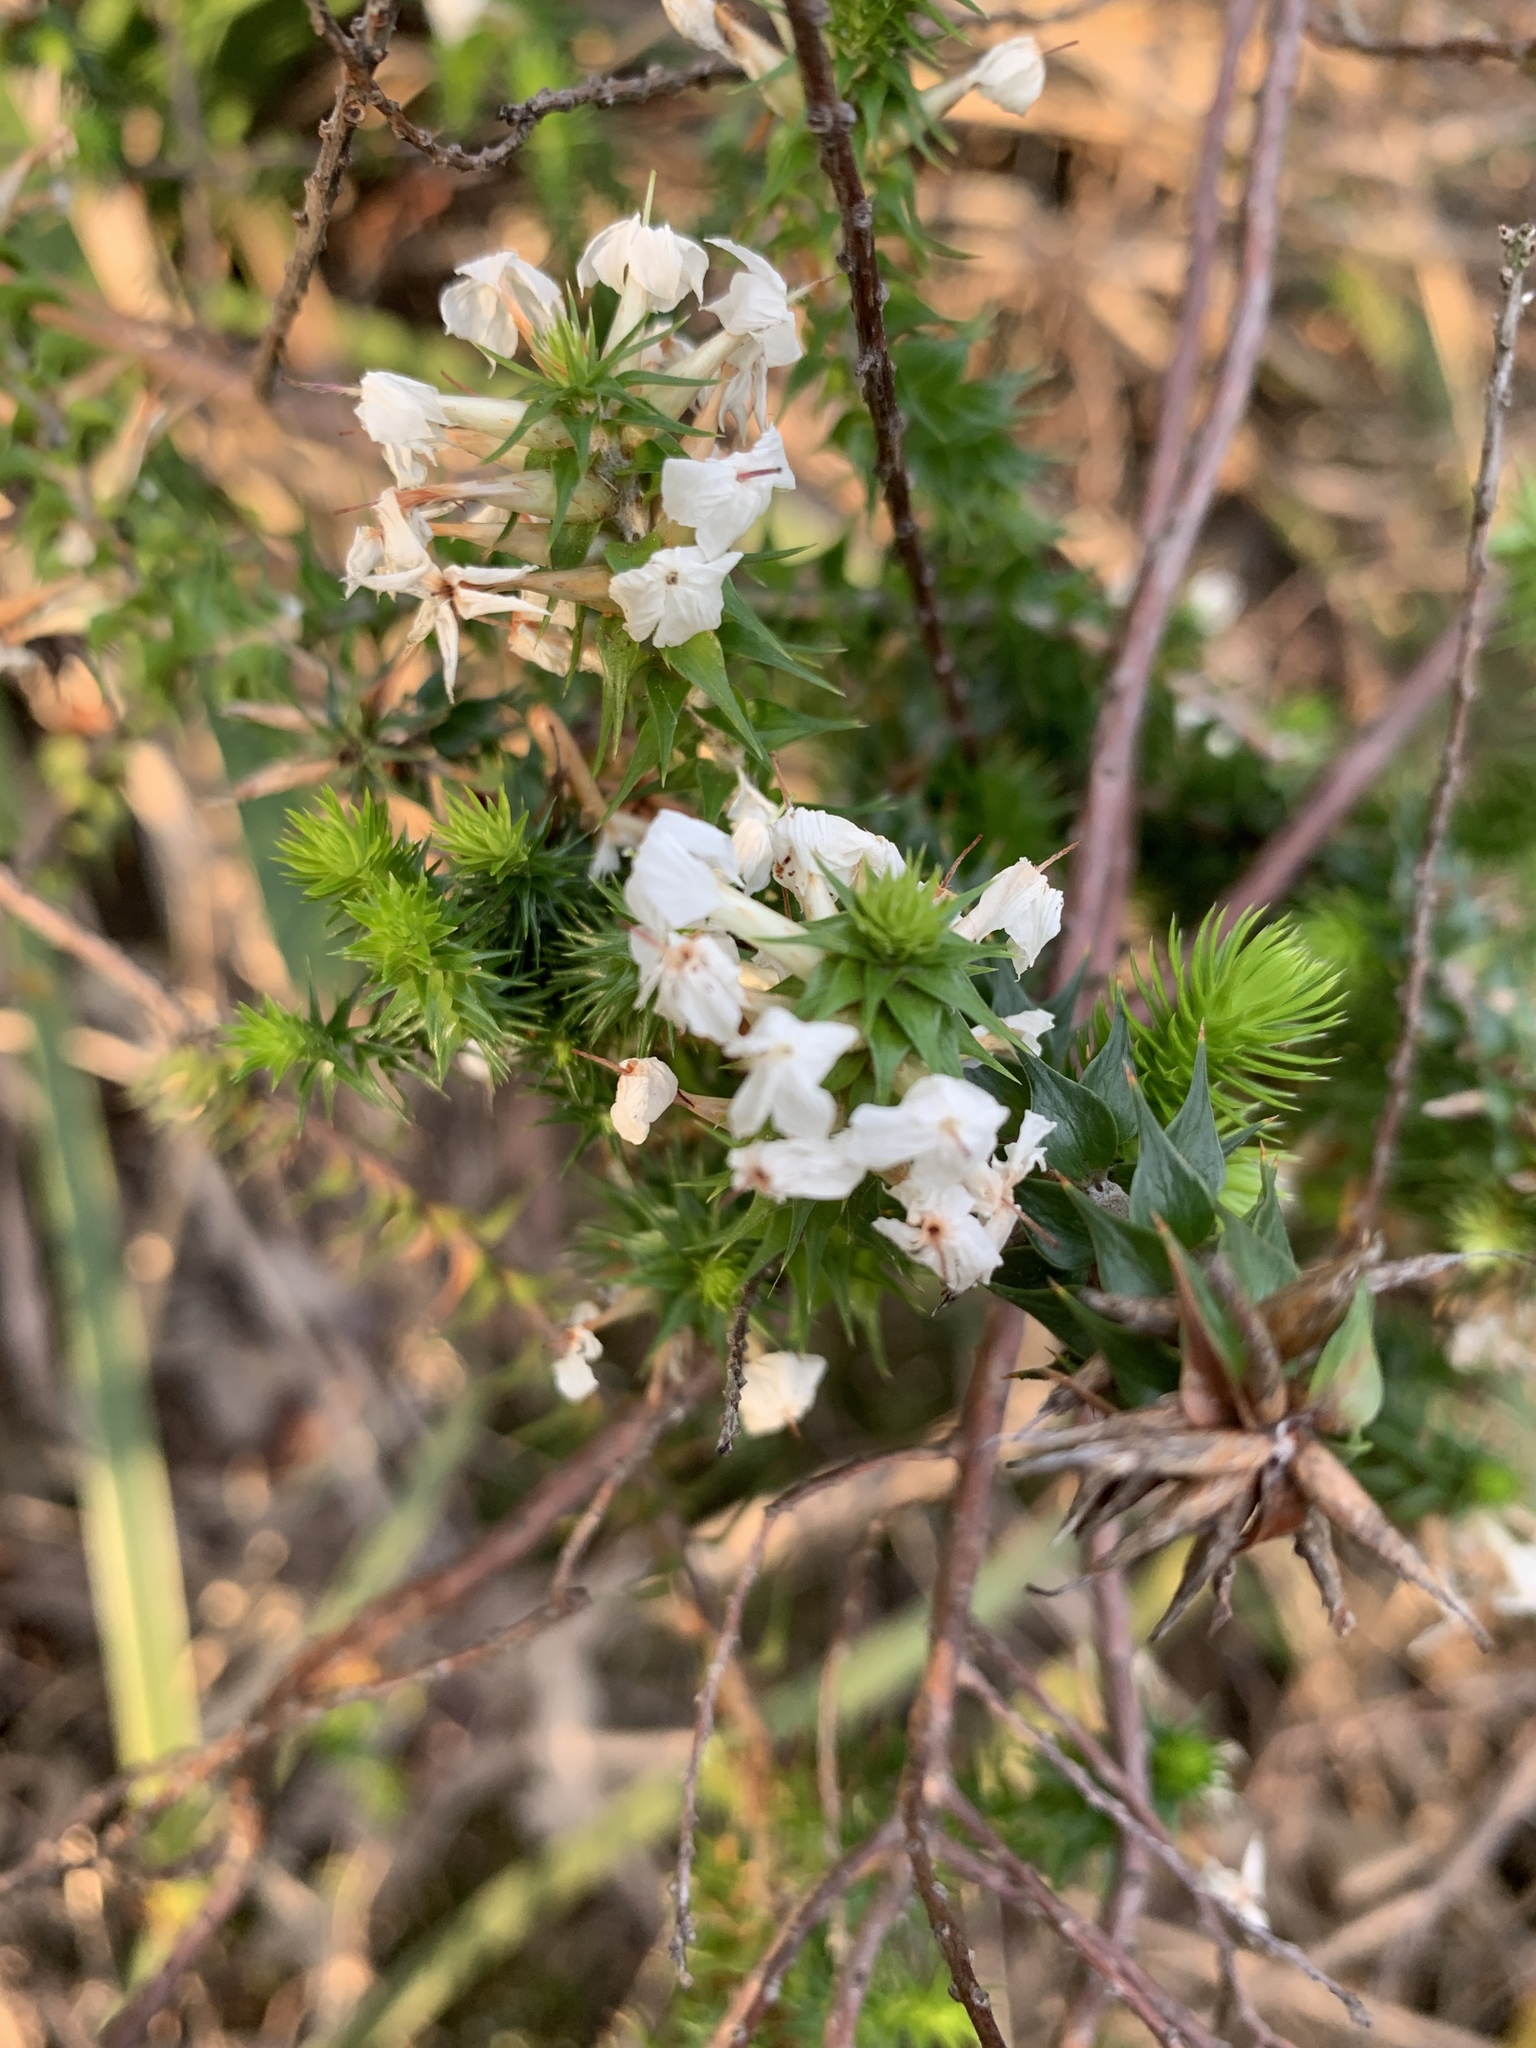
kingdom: Plantae
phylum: Tracheophyta
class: Magnoliopsida
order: Ericales
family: Ericaceae
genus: Woollsia
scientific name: Woollsia pungens
